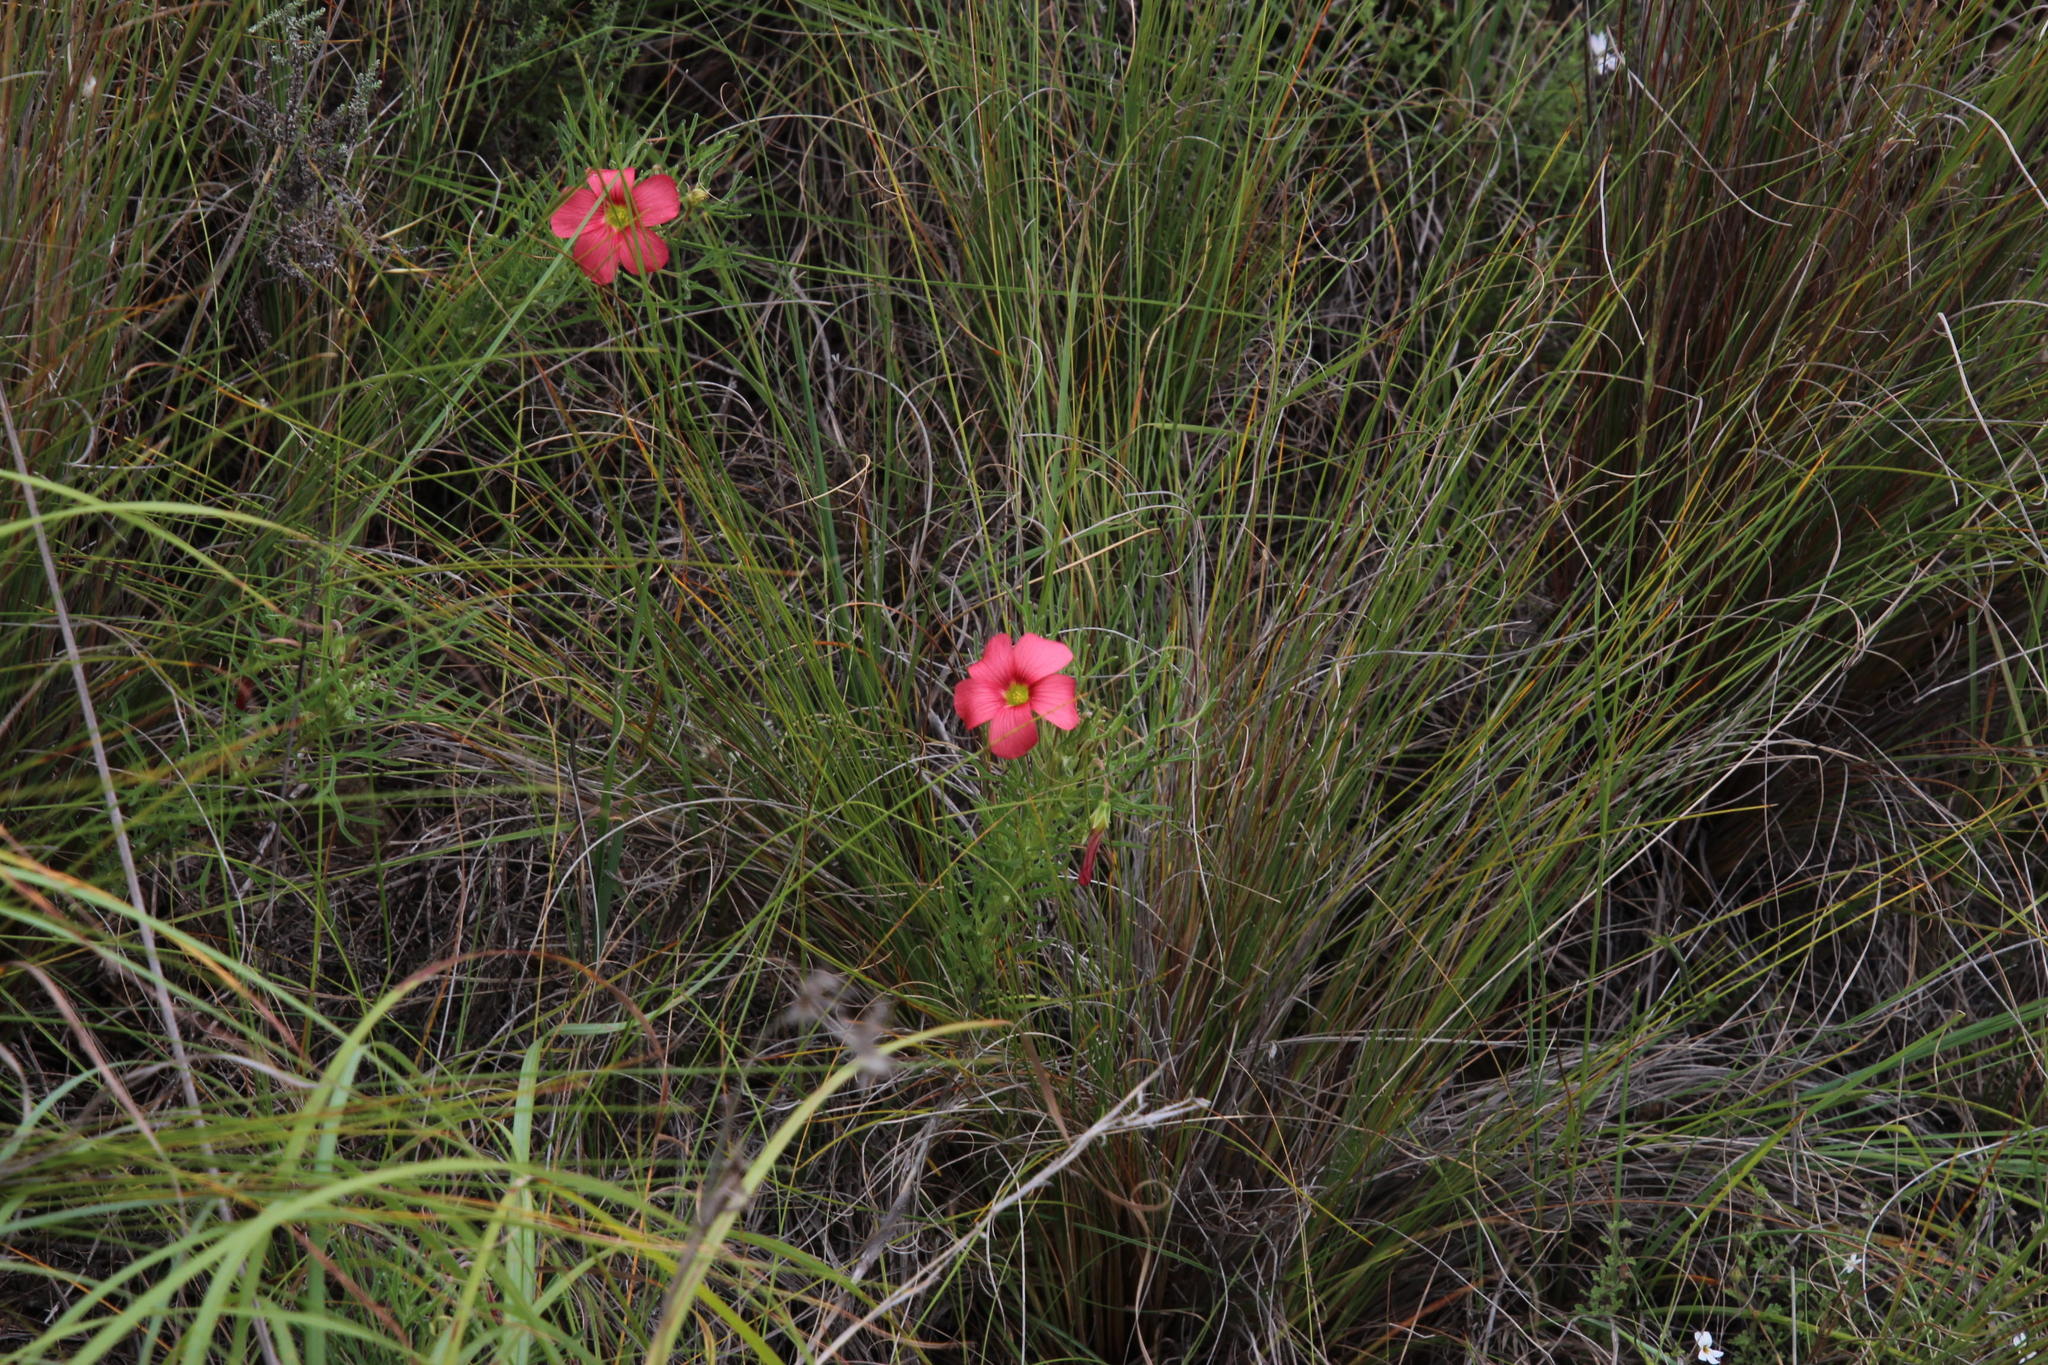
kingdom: Plantae
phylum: Tracheophyta
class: Magnoliopsida
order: Oxalidales
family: Oxalidaceae
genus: Oxalis
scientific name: Oxalis bifurca
